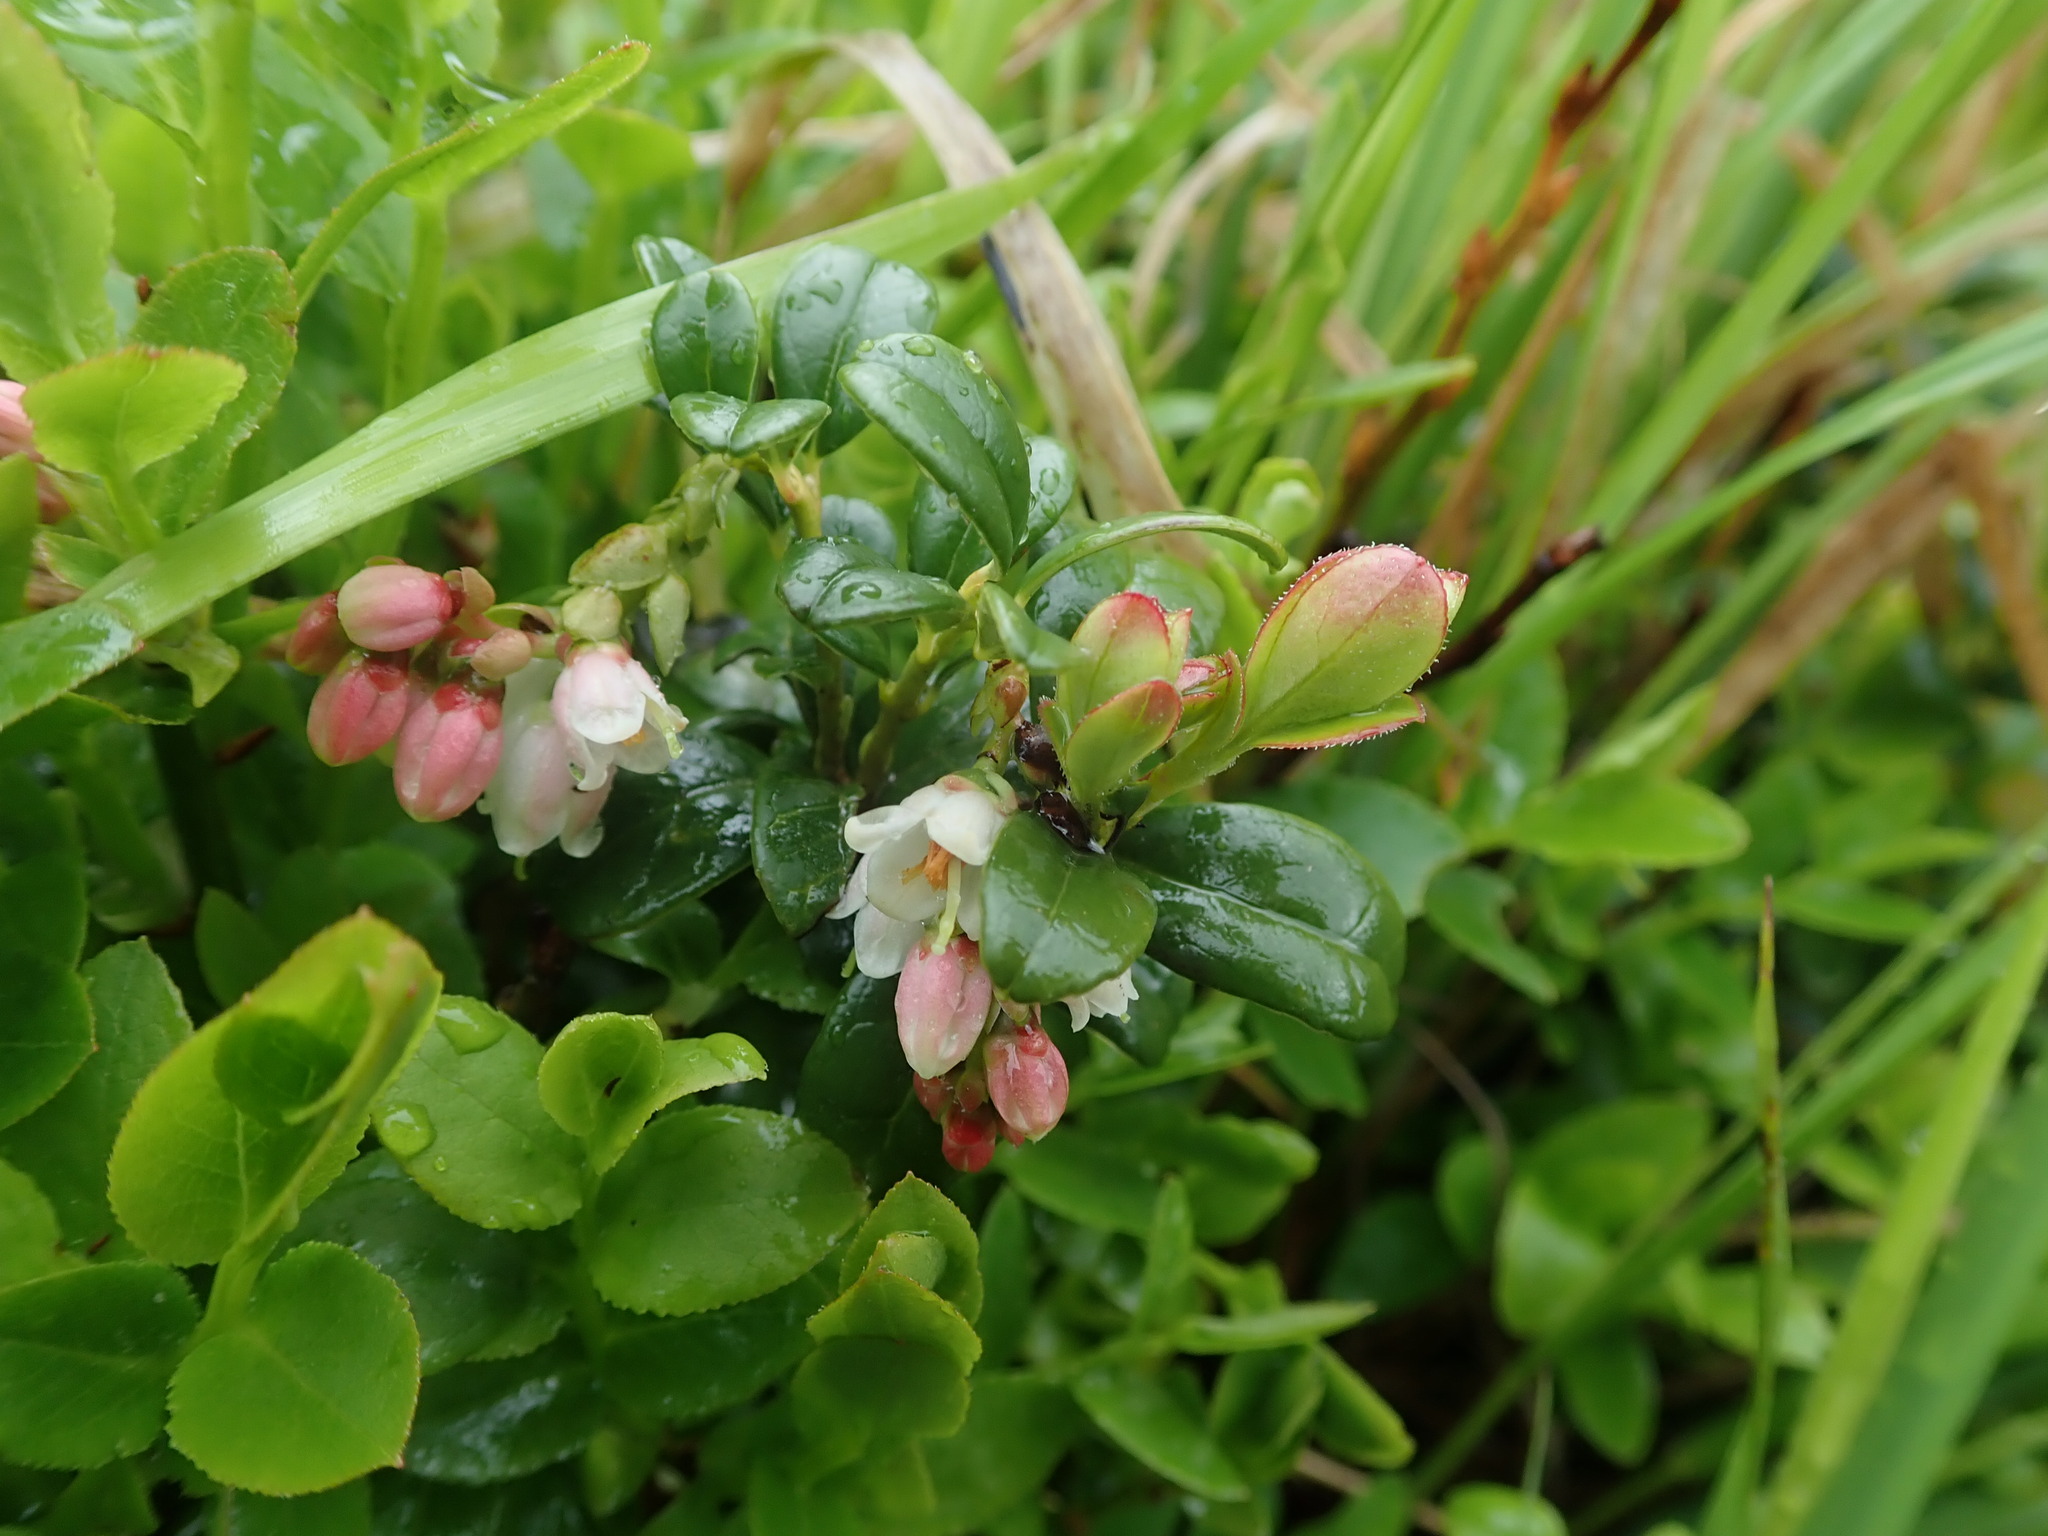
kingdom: Plantae
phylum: Tracheophyta
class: Magnoliopsida
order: Ericales
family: Ericaceae
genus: Vaccinium
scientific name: Vaccinium vitis-idaea
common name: Cowberry
